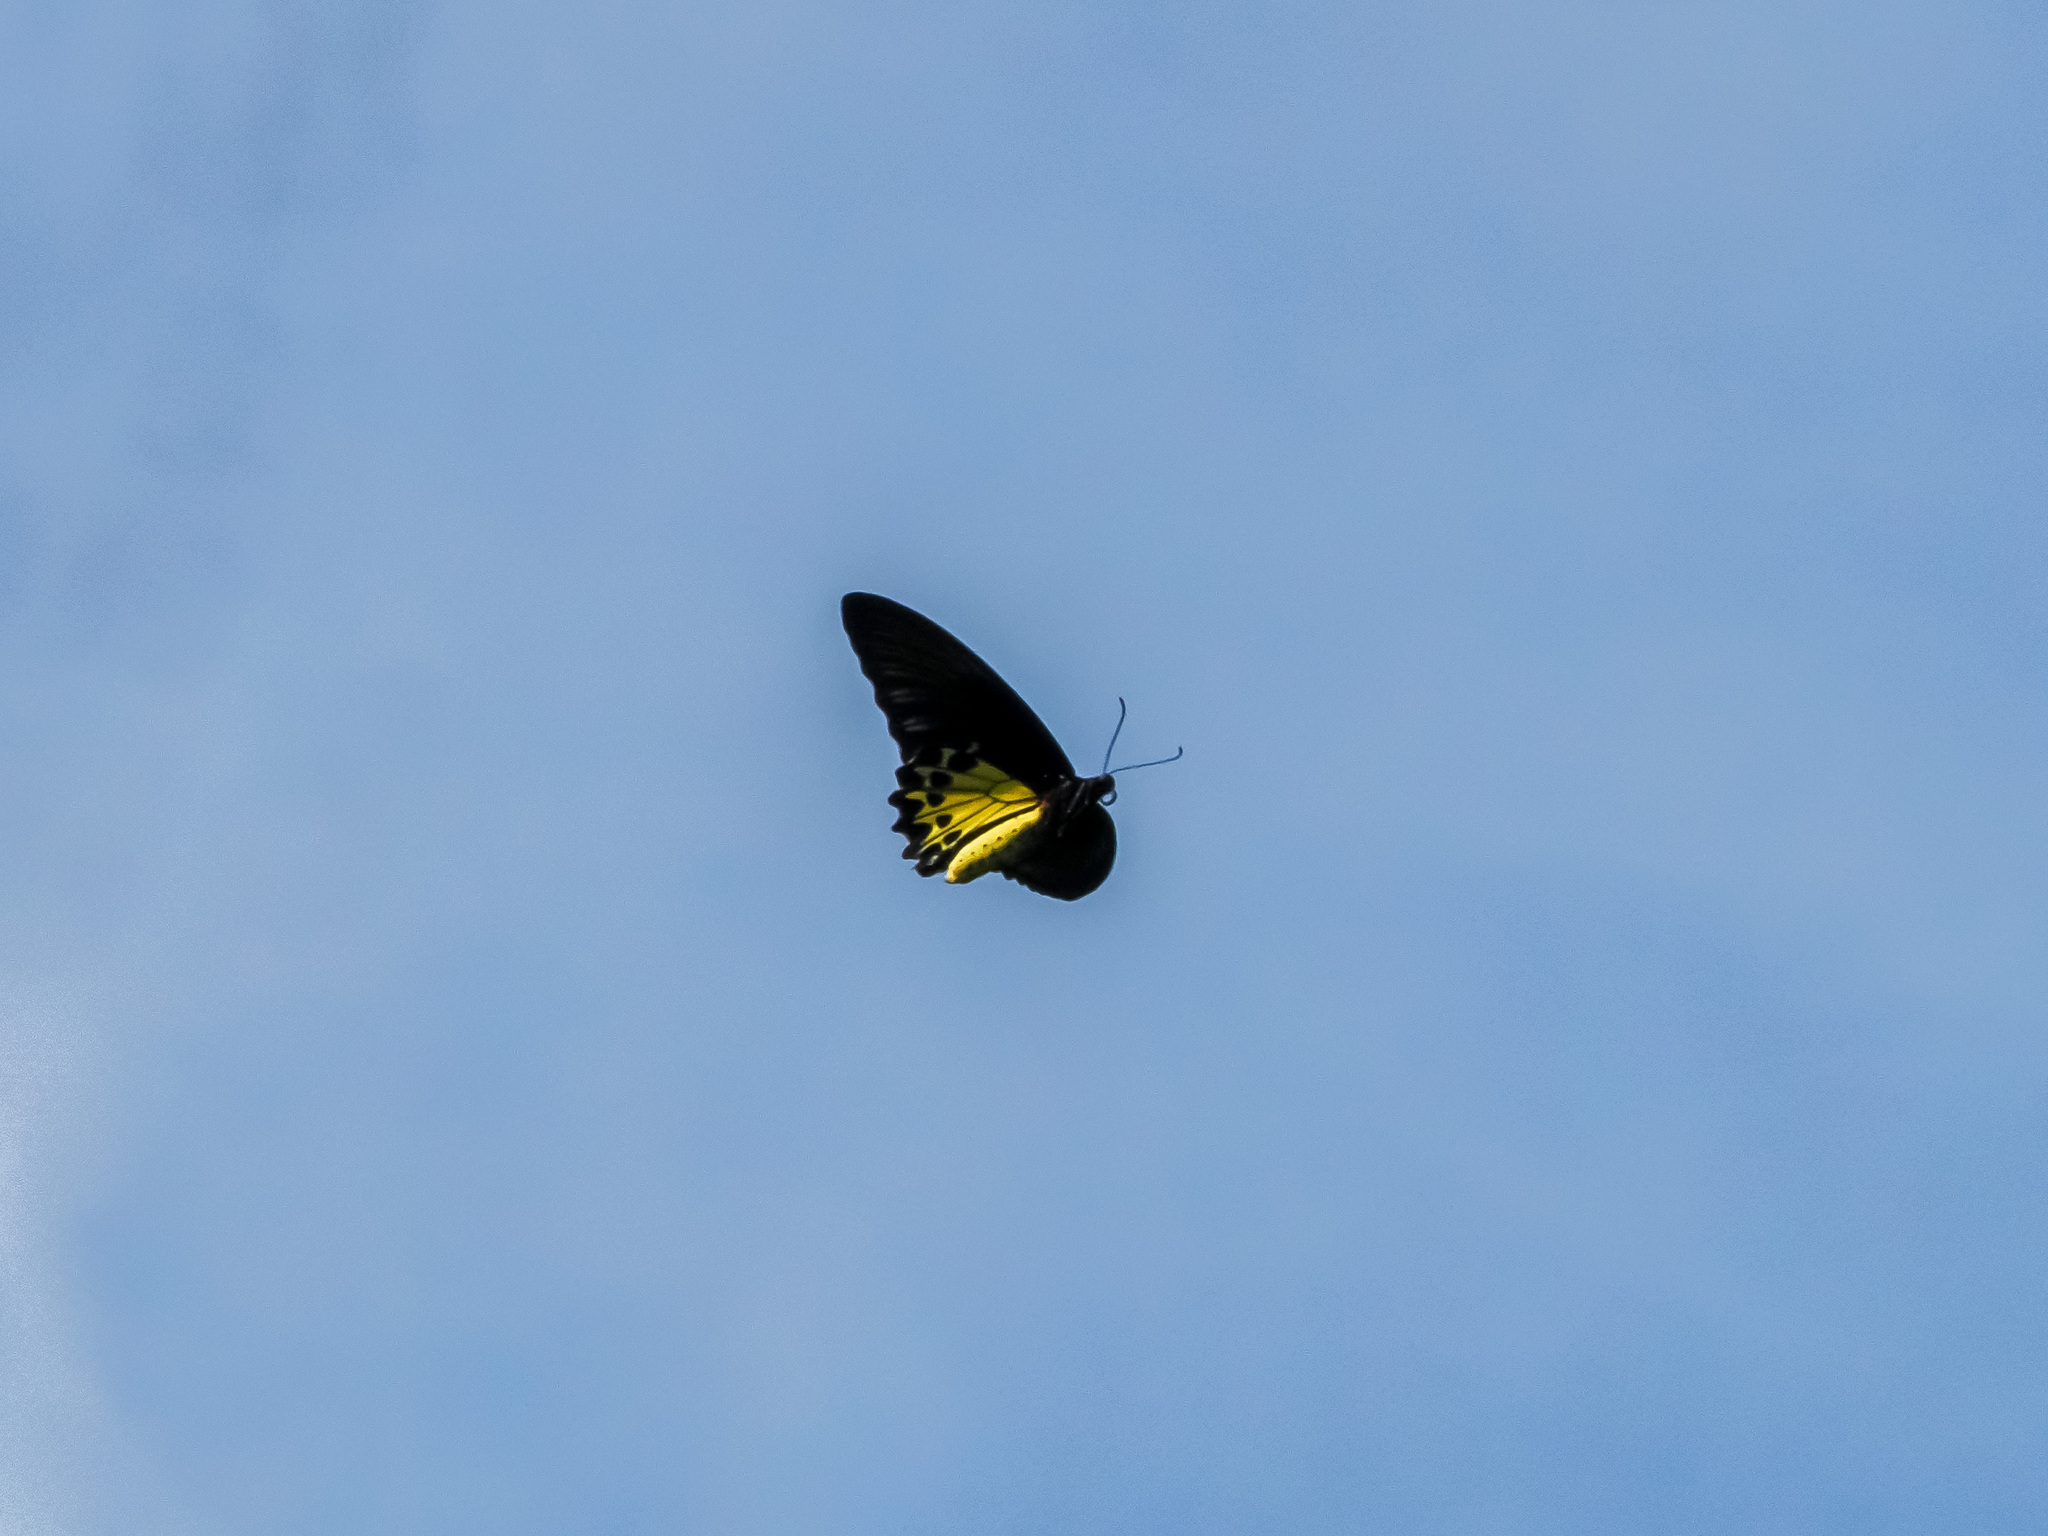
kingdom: Animalia
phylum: Arthropoda
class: Insecta
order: Lepidoptera
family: Papilionidae
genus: Troides
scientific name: Troides helena
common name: Common birdwing
